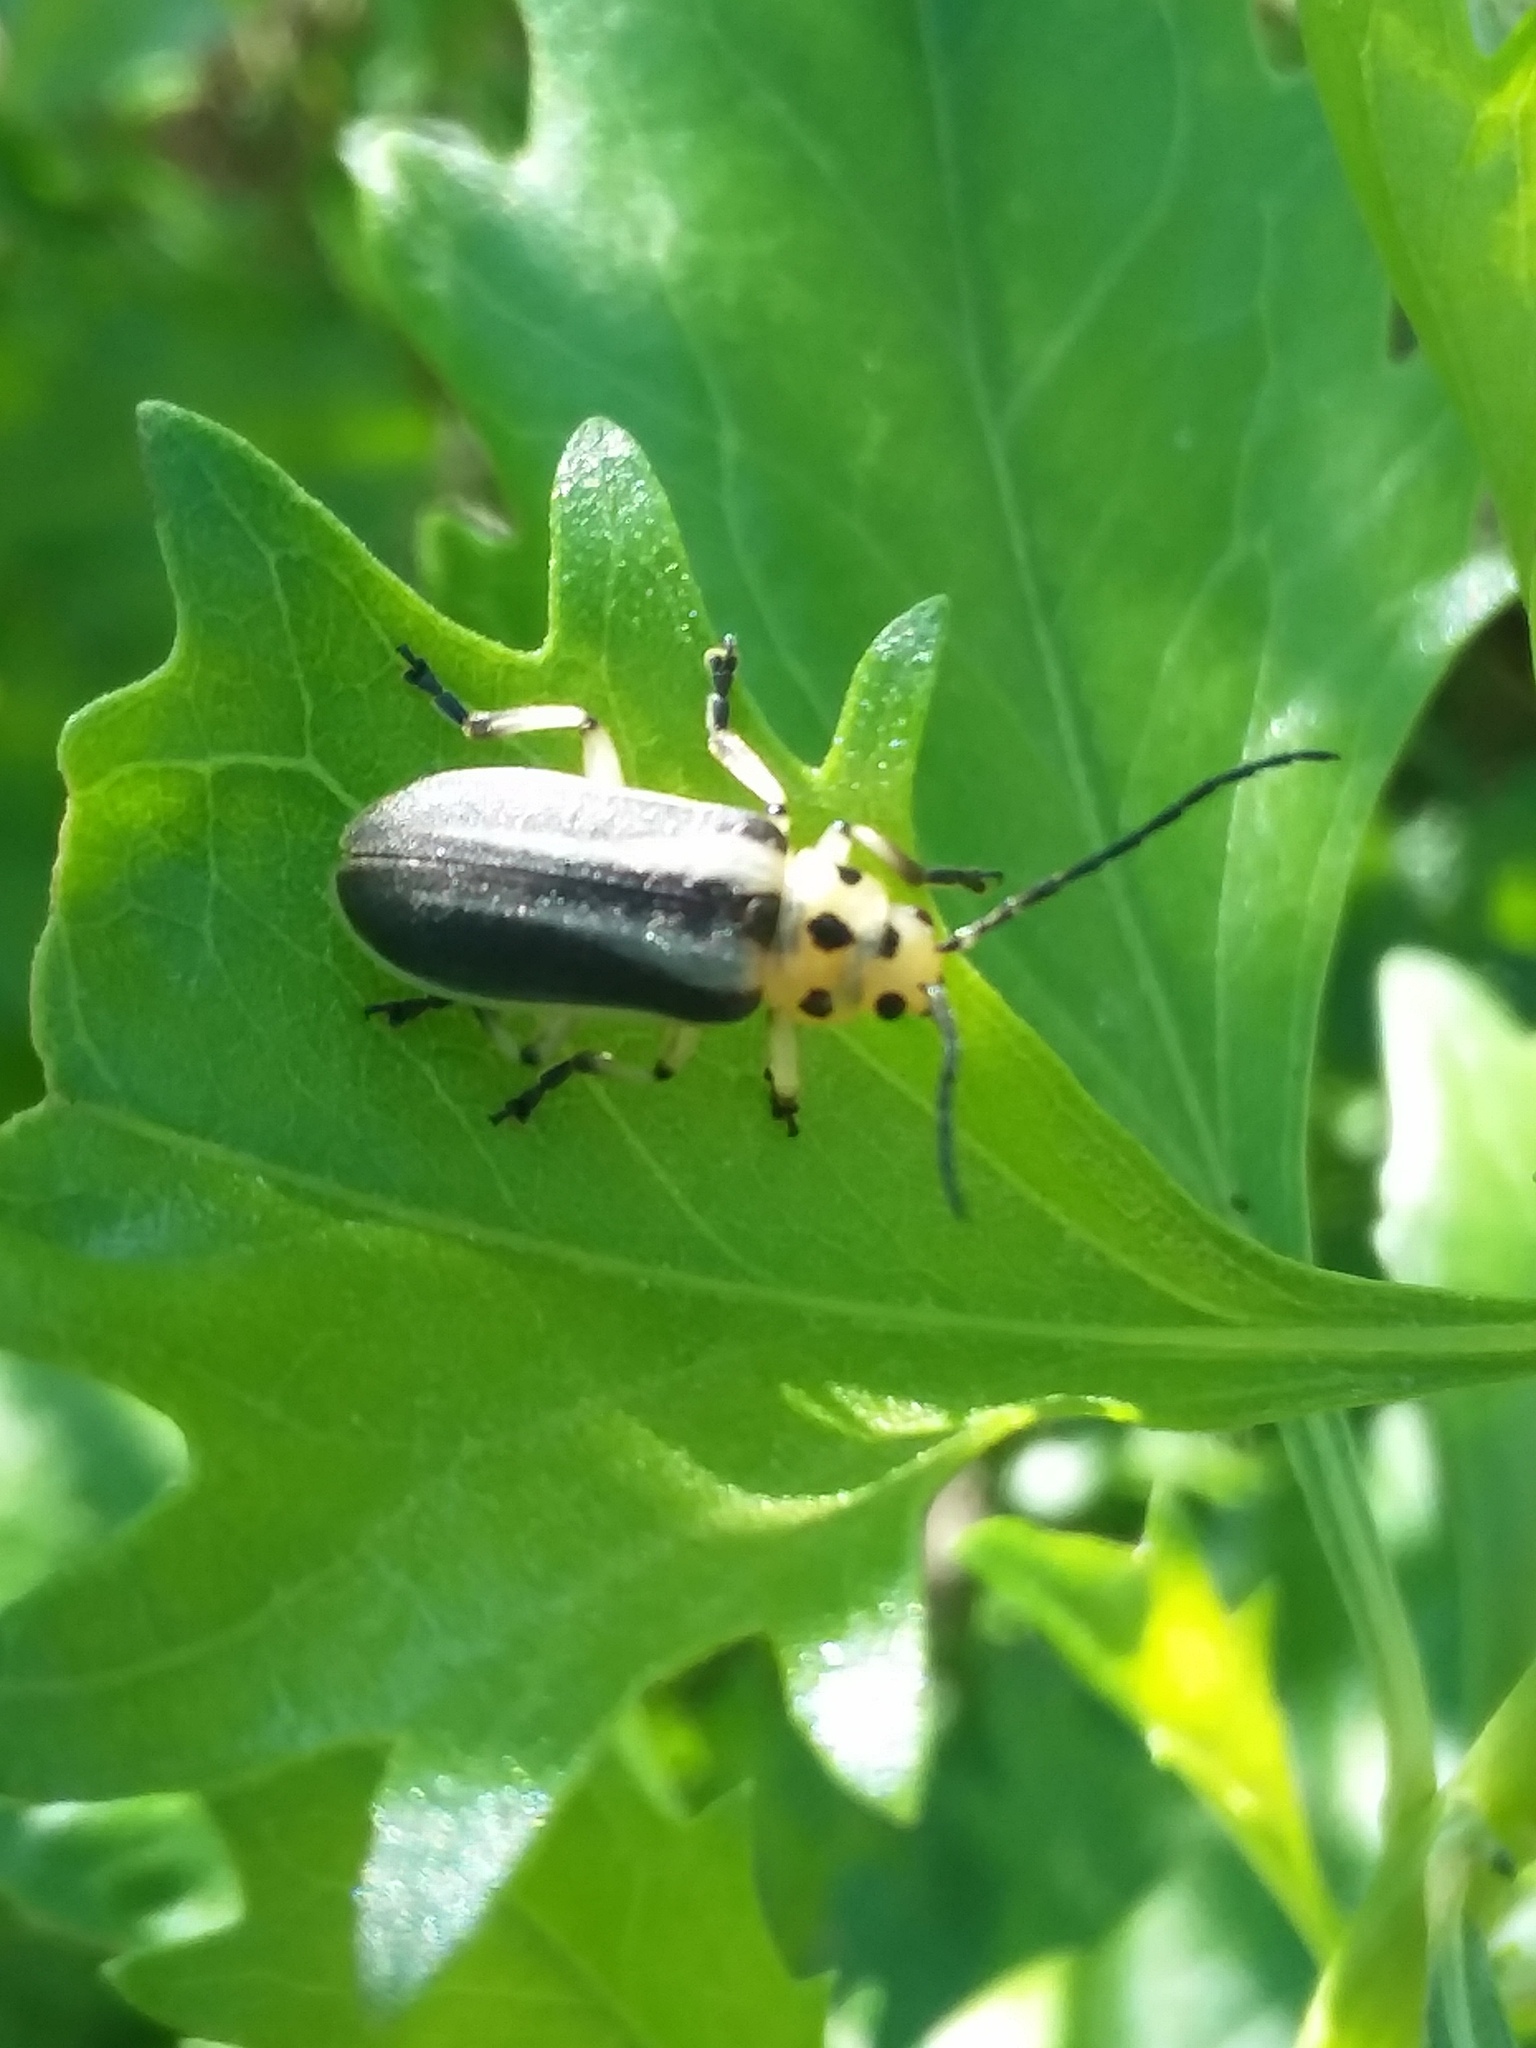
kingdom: Animalia
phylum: Arthropoda
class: Insecta
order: Coleoptera
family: Chrysomelidae
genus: Trirhabda
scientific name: Trirhabda bacharidis
